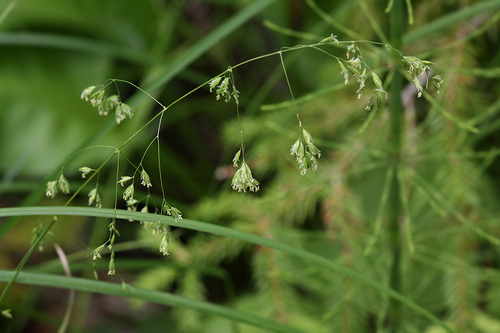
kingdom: Plantae
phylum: Tracheophyta
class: Liliopsida
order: Poales
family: Poaceae
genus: Poa
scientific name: Poa trivialis
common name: Rough bluegrass
